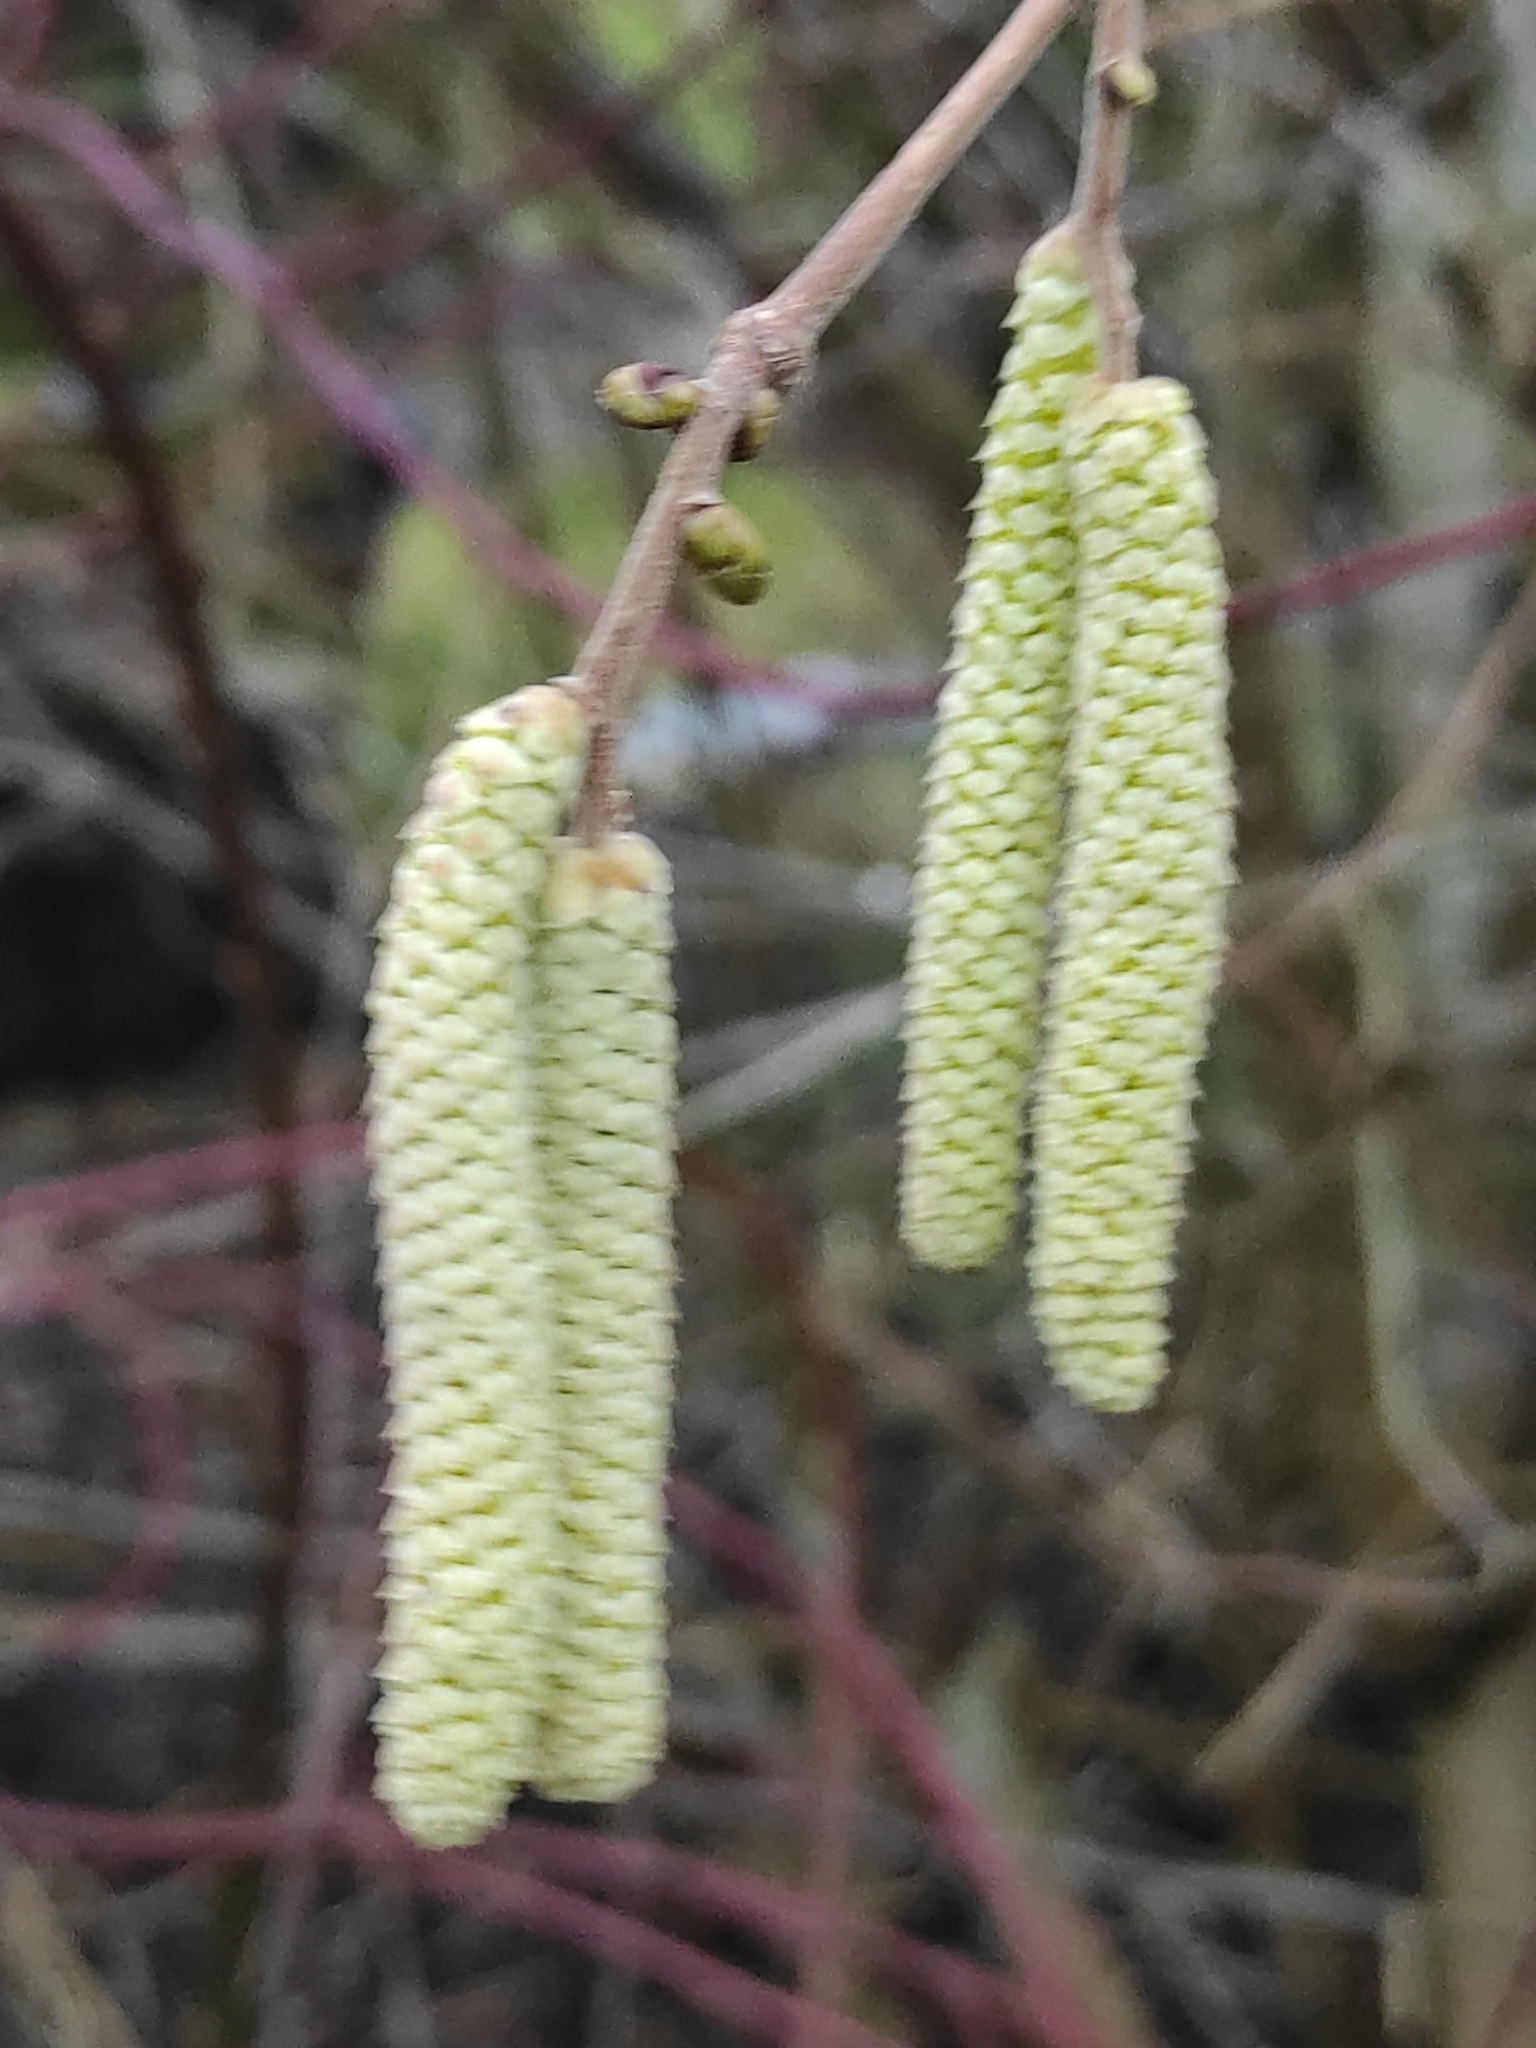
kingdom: Plantae
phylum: Tracheophyta
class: Magnoliopsida
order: Fagales
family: Betulaceae
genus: Corylus
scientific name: Corylus avellana
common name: European hazel
